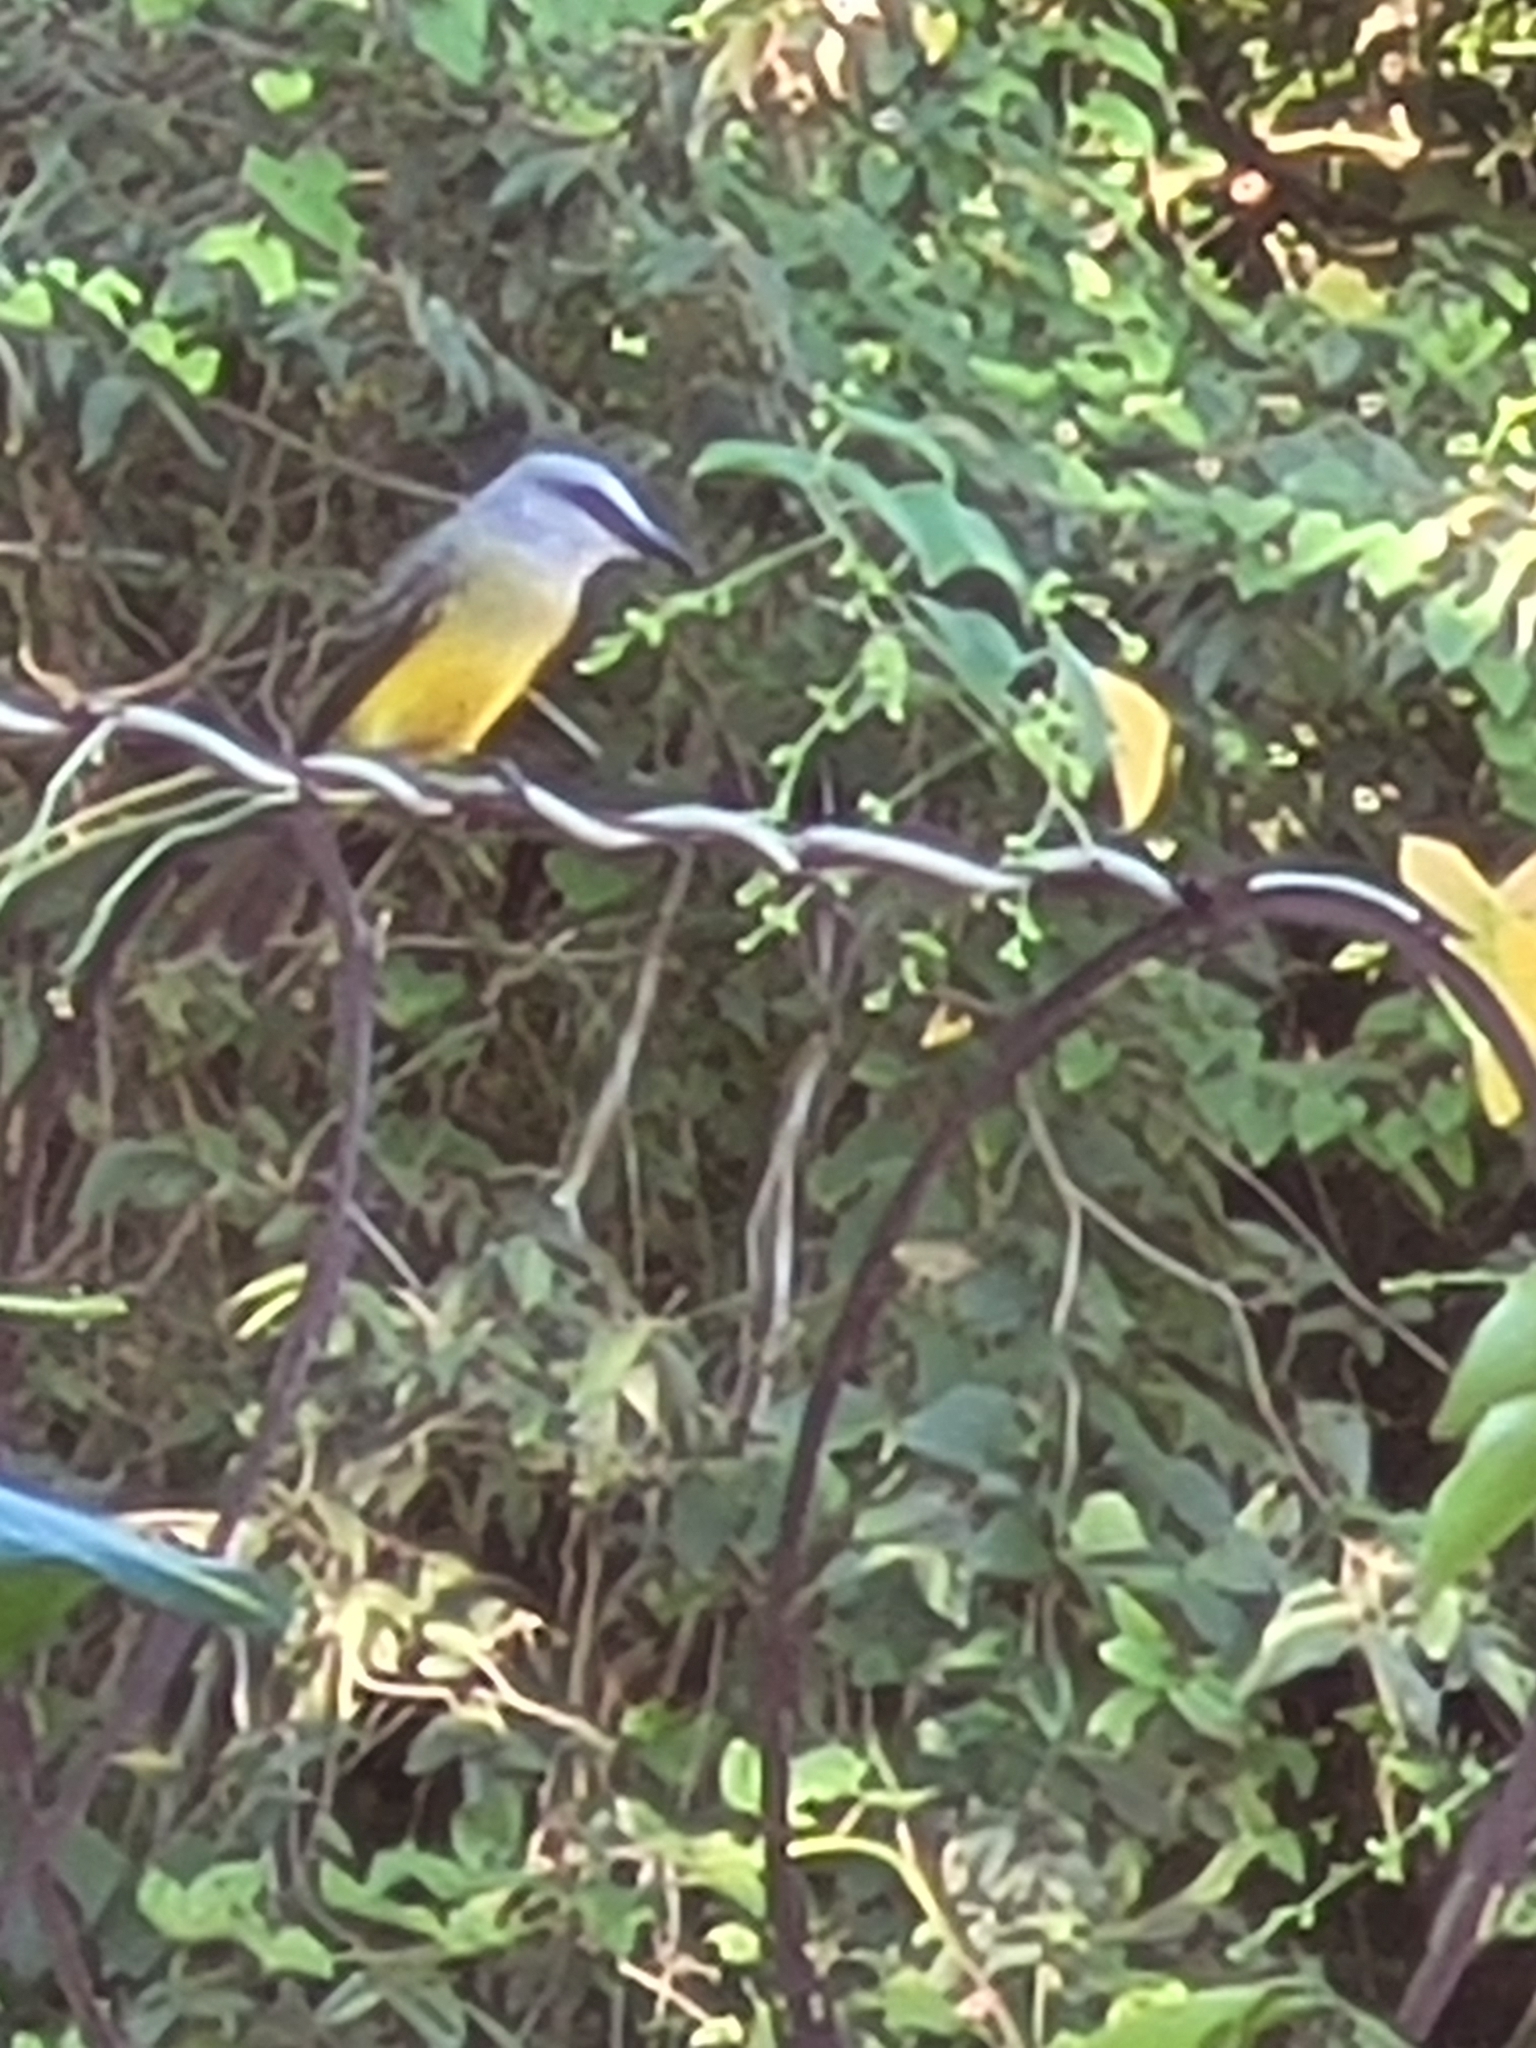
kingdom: Animalia
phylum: Chordata
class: Aves
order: Passeriformes
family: Tyrannidae
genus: Tyrannus
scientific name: Tyrannus melancholicus
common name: Tropical kingbird
